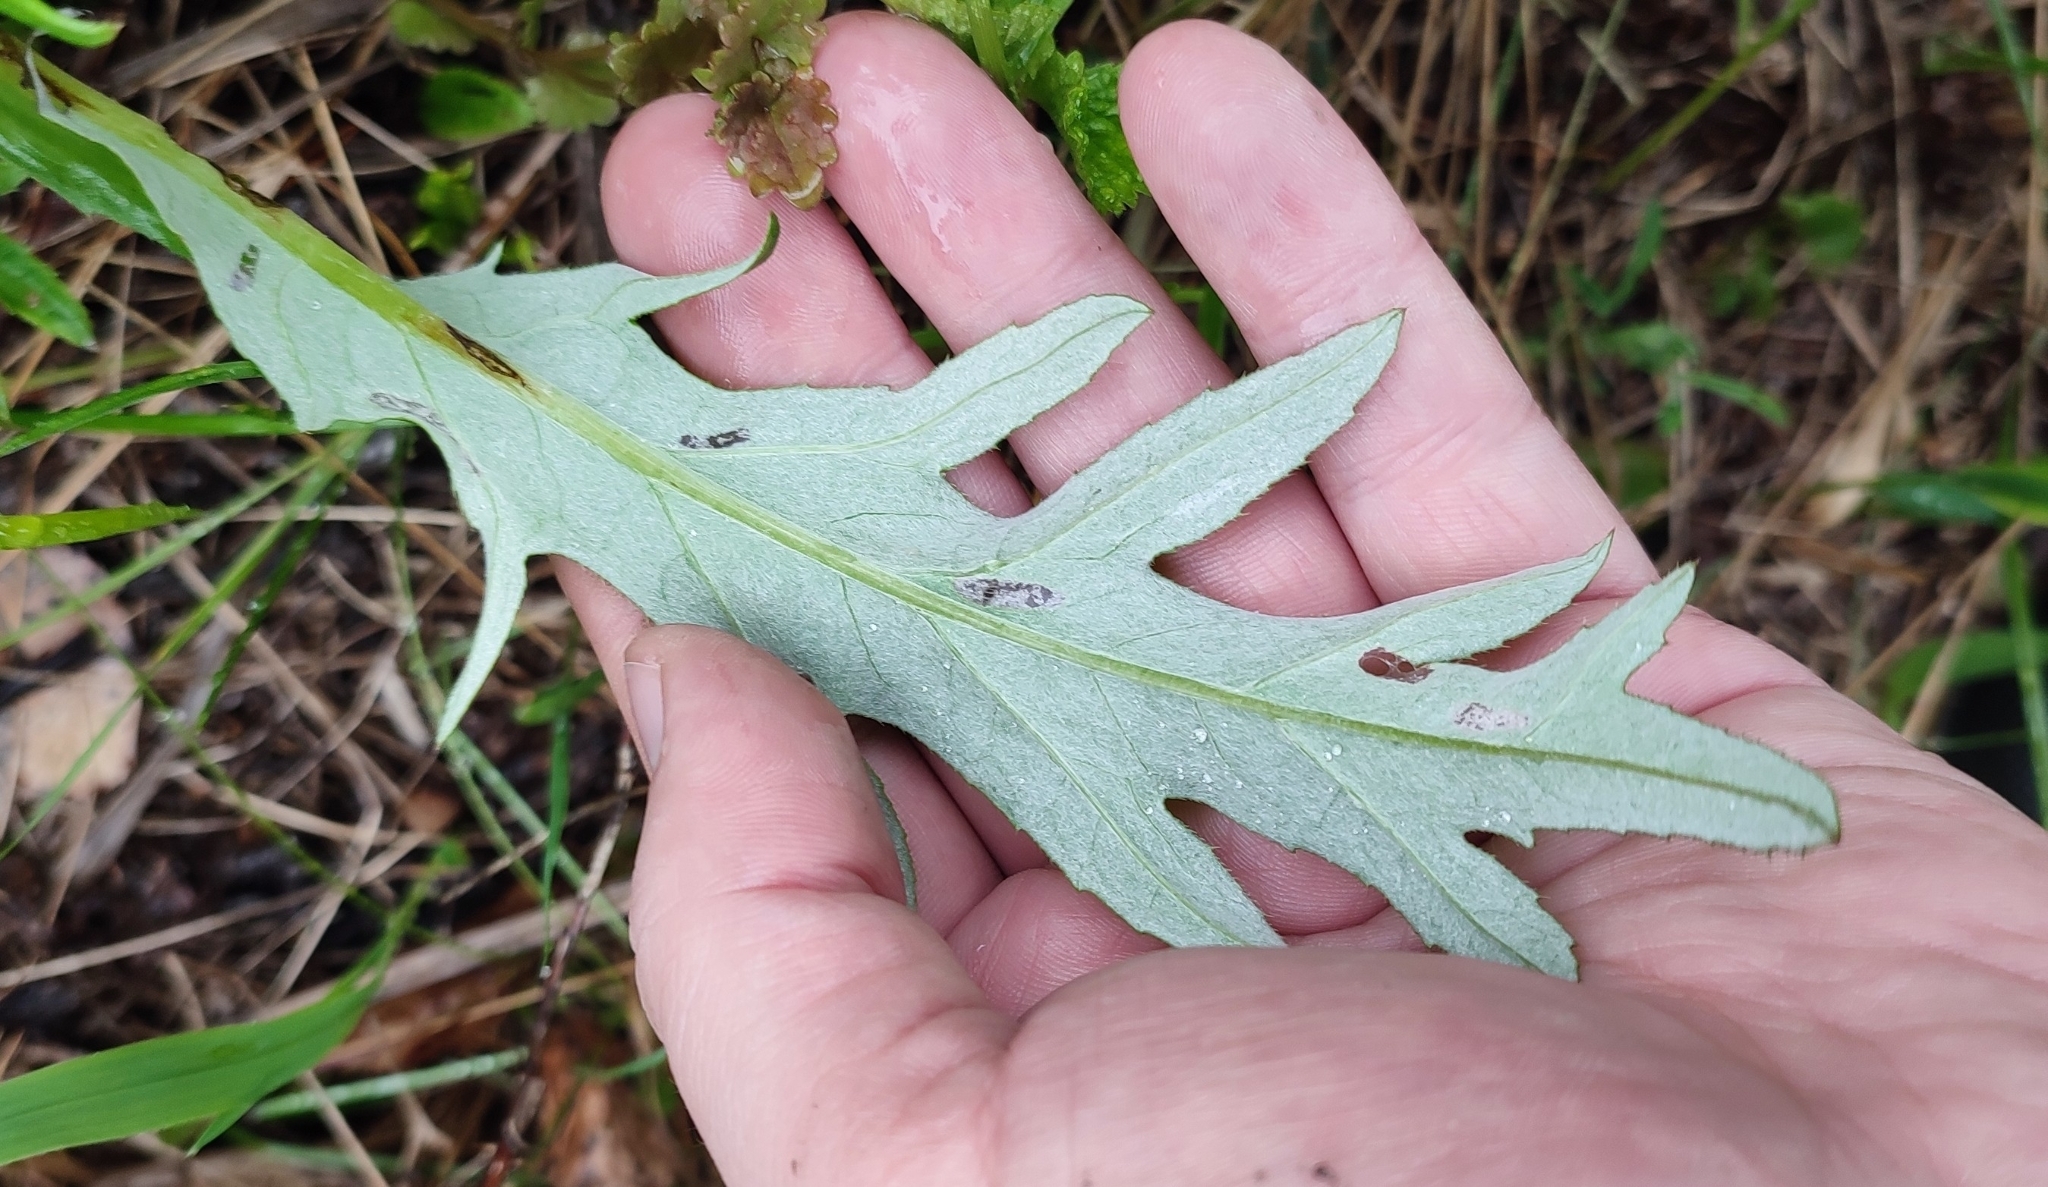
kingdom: Plantae
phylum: Tracheophyta
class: Magnoliopsida
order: Asterales
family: Asteraceae
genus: Cirsium
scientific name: Cirsium heterophyllum
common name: Melancholy thistle
